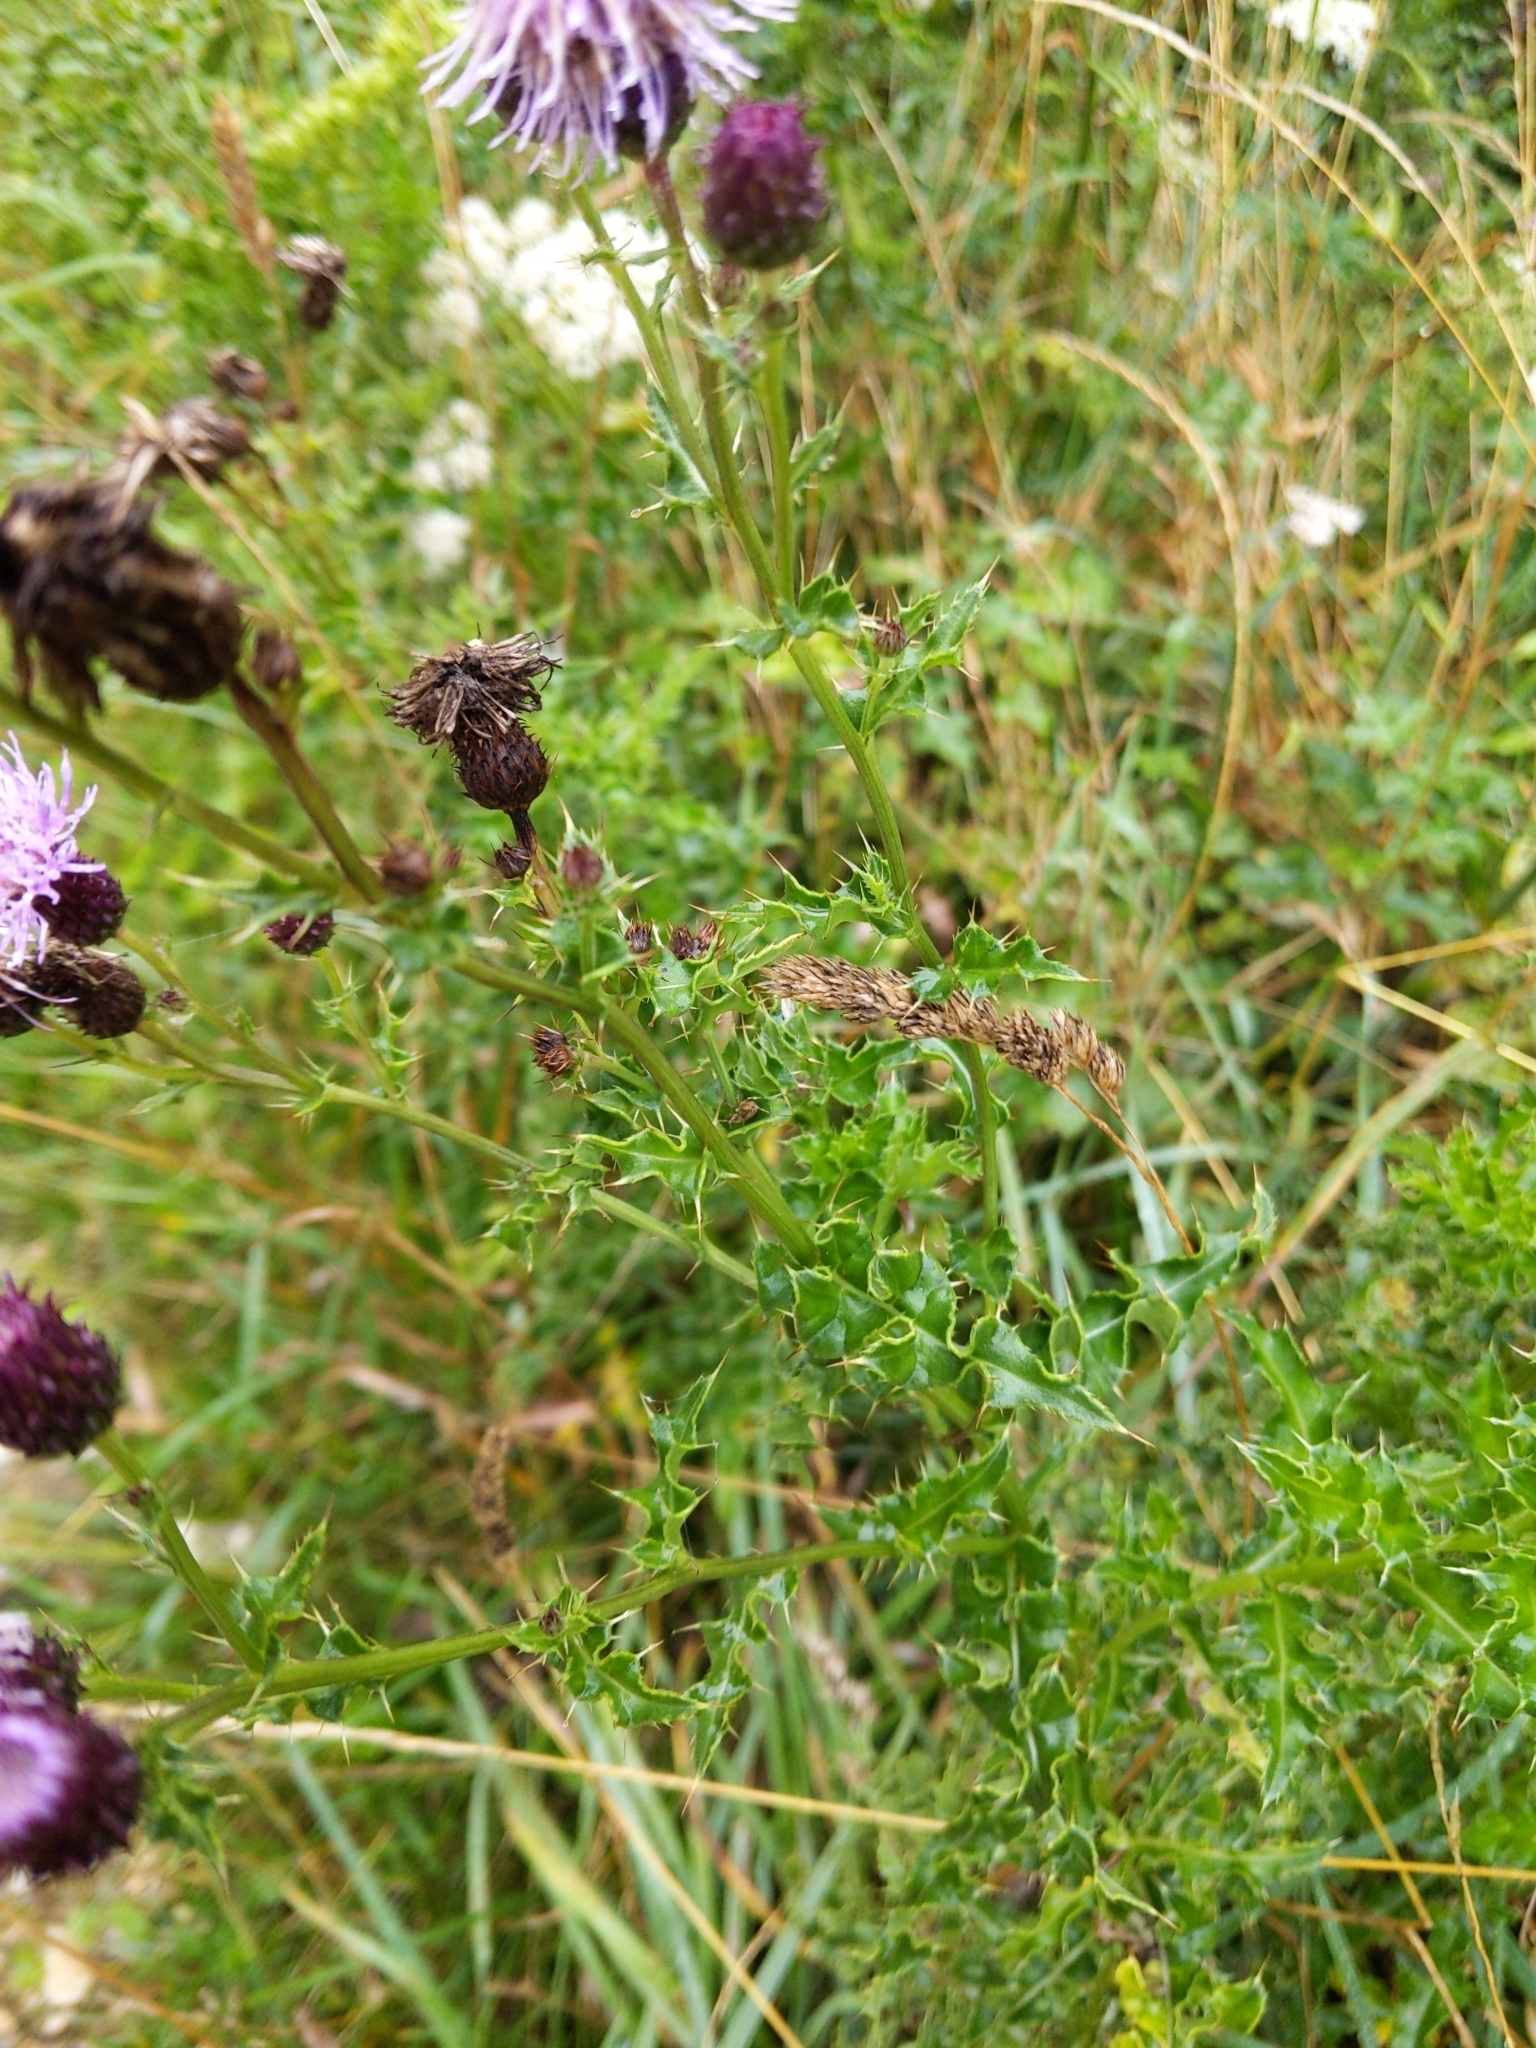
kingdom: Plantae
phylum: Tracheophyta
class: Magnoliopsida
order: Asterales
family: Asteraceae
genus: Cirsium
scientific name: Cirsium arvense
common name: Creeping thistle
